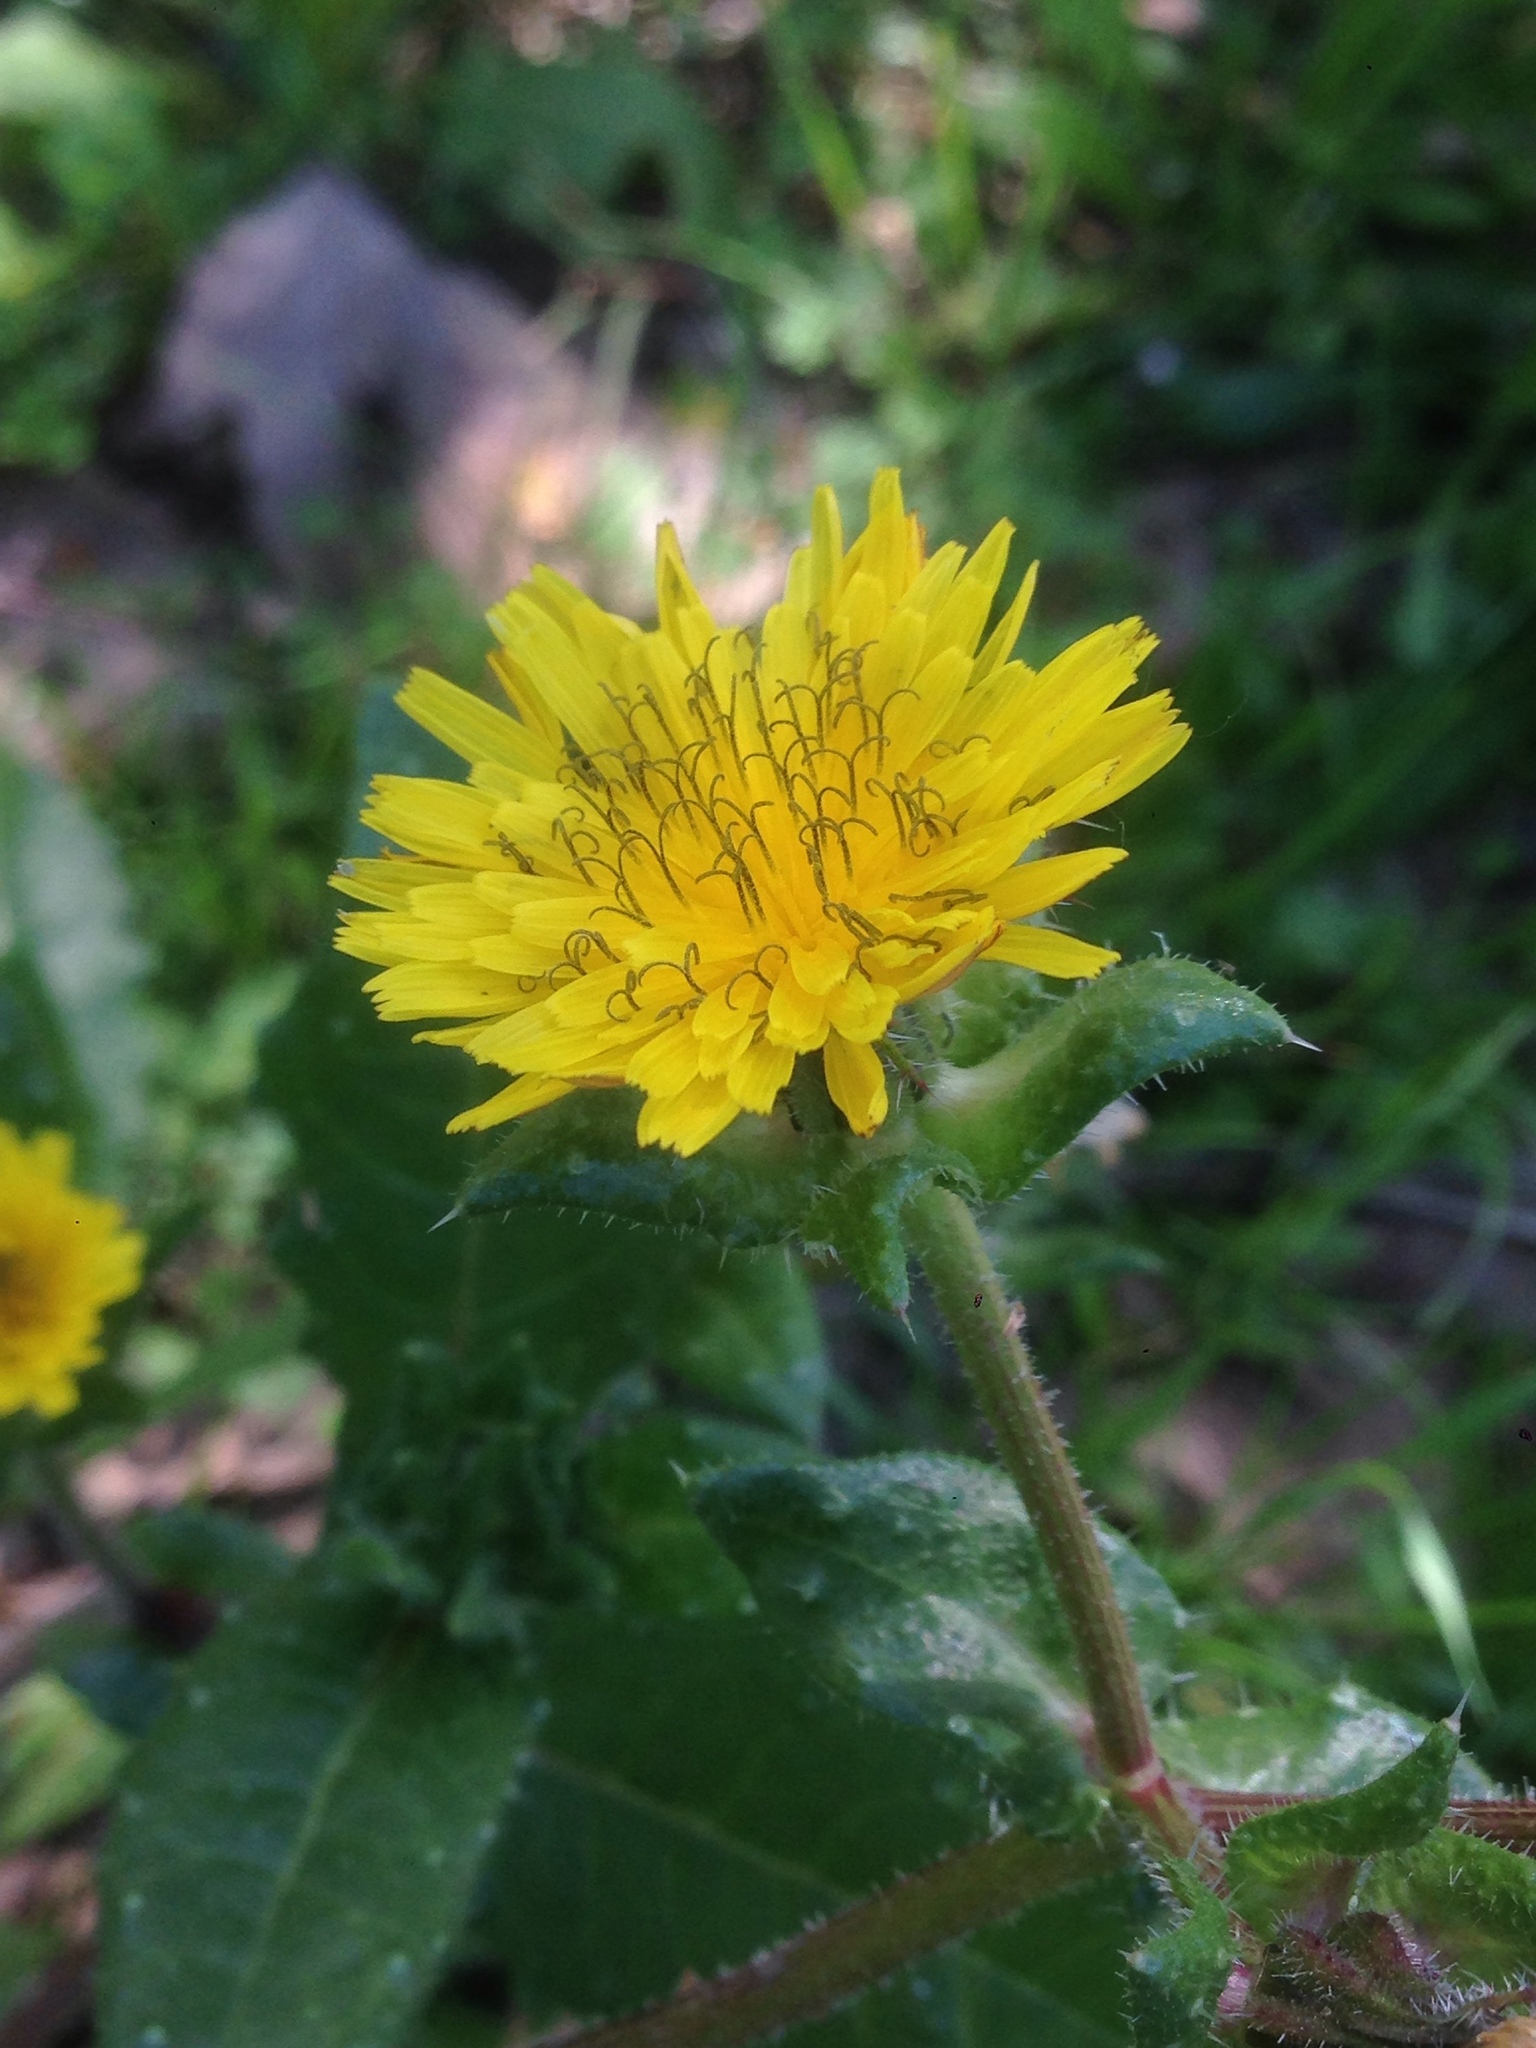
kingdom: Plantae
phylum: Tracheophyta
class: Magnoliopsida
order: Asterales
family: Asteraceae
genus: Helminthotheca
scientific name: Helminthotheca echioides
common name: Ox-tongue
